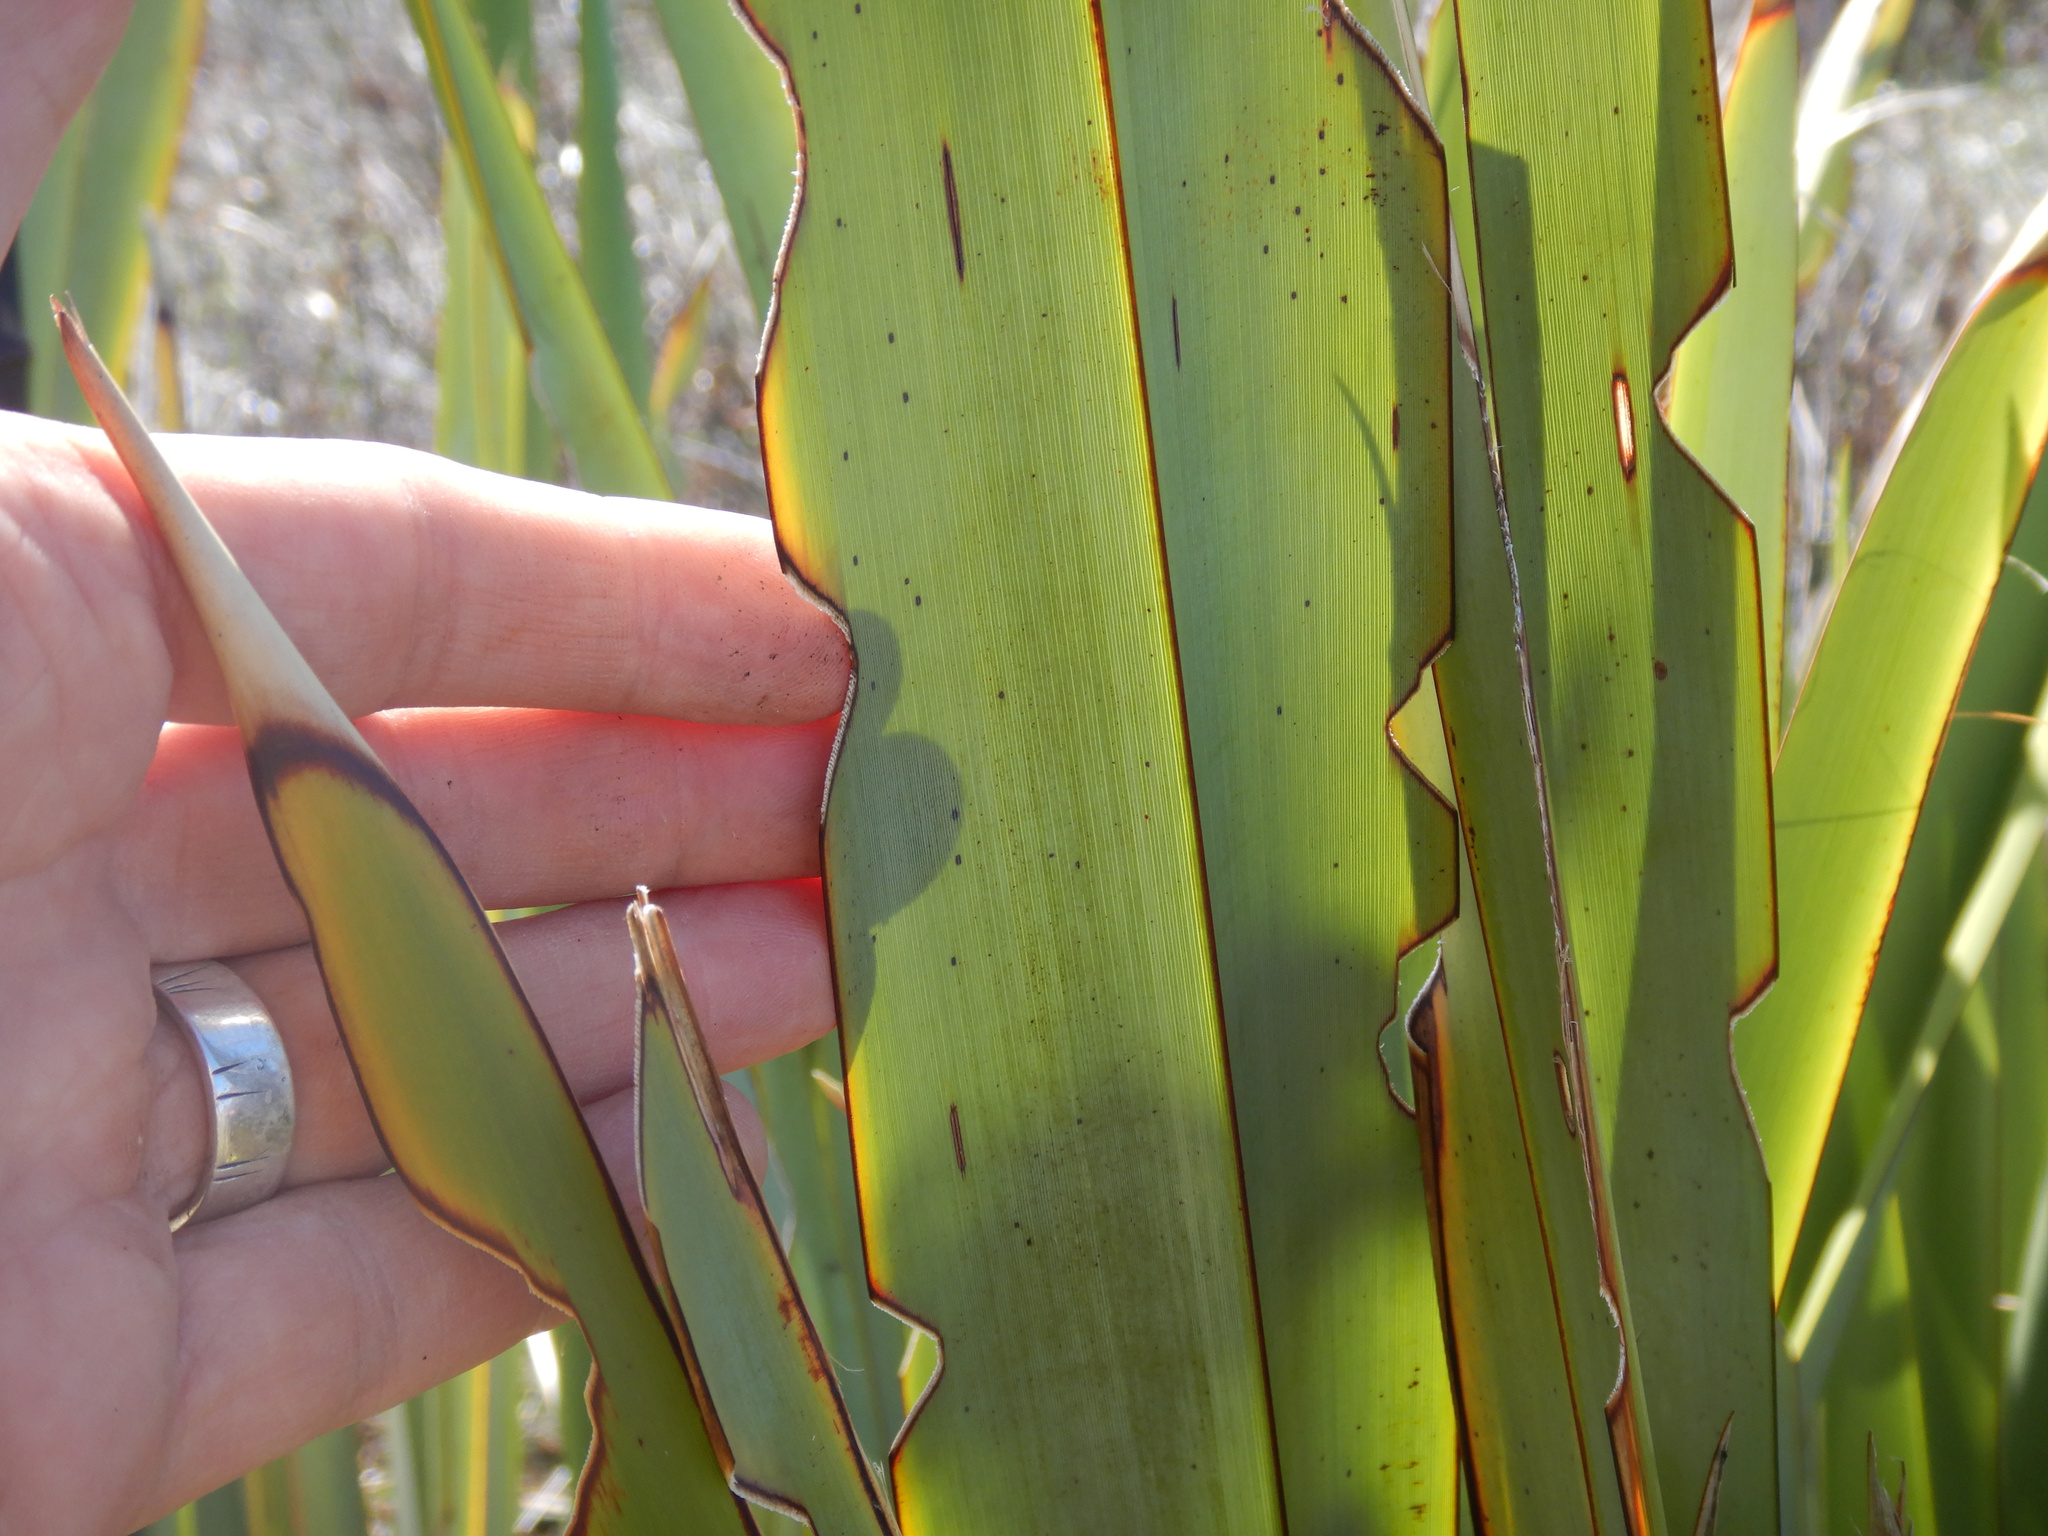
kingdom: Animalia
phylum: Arthropoda
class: Insecta
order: Lepidoptera
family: Noctuidae
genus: Ichneutica
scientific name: Ichneutica
